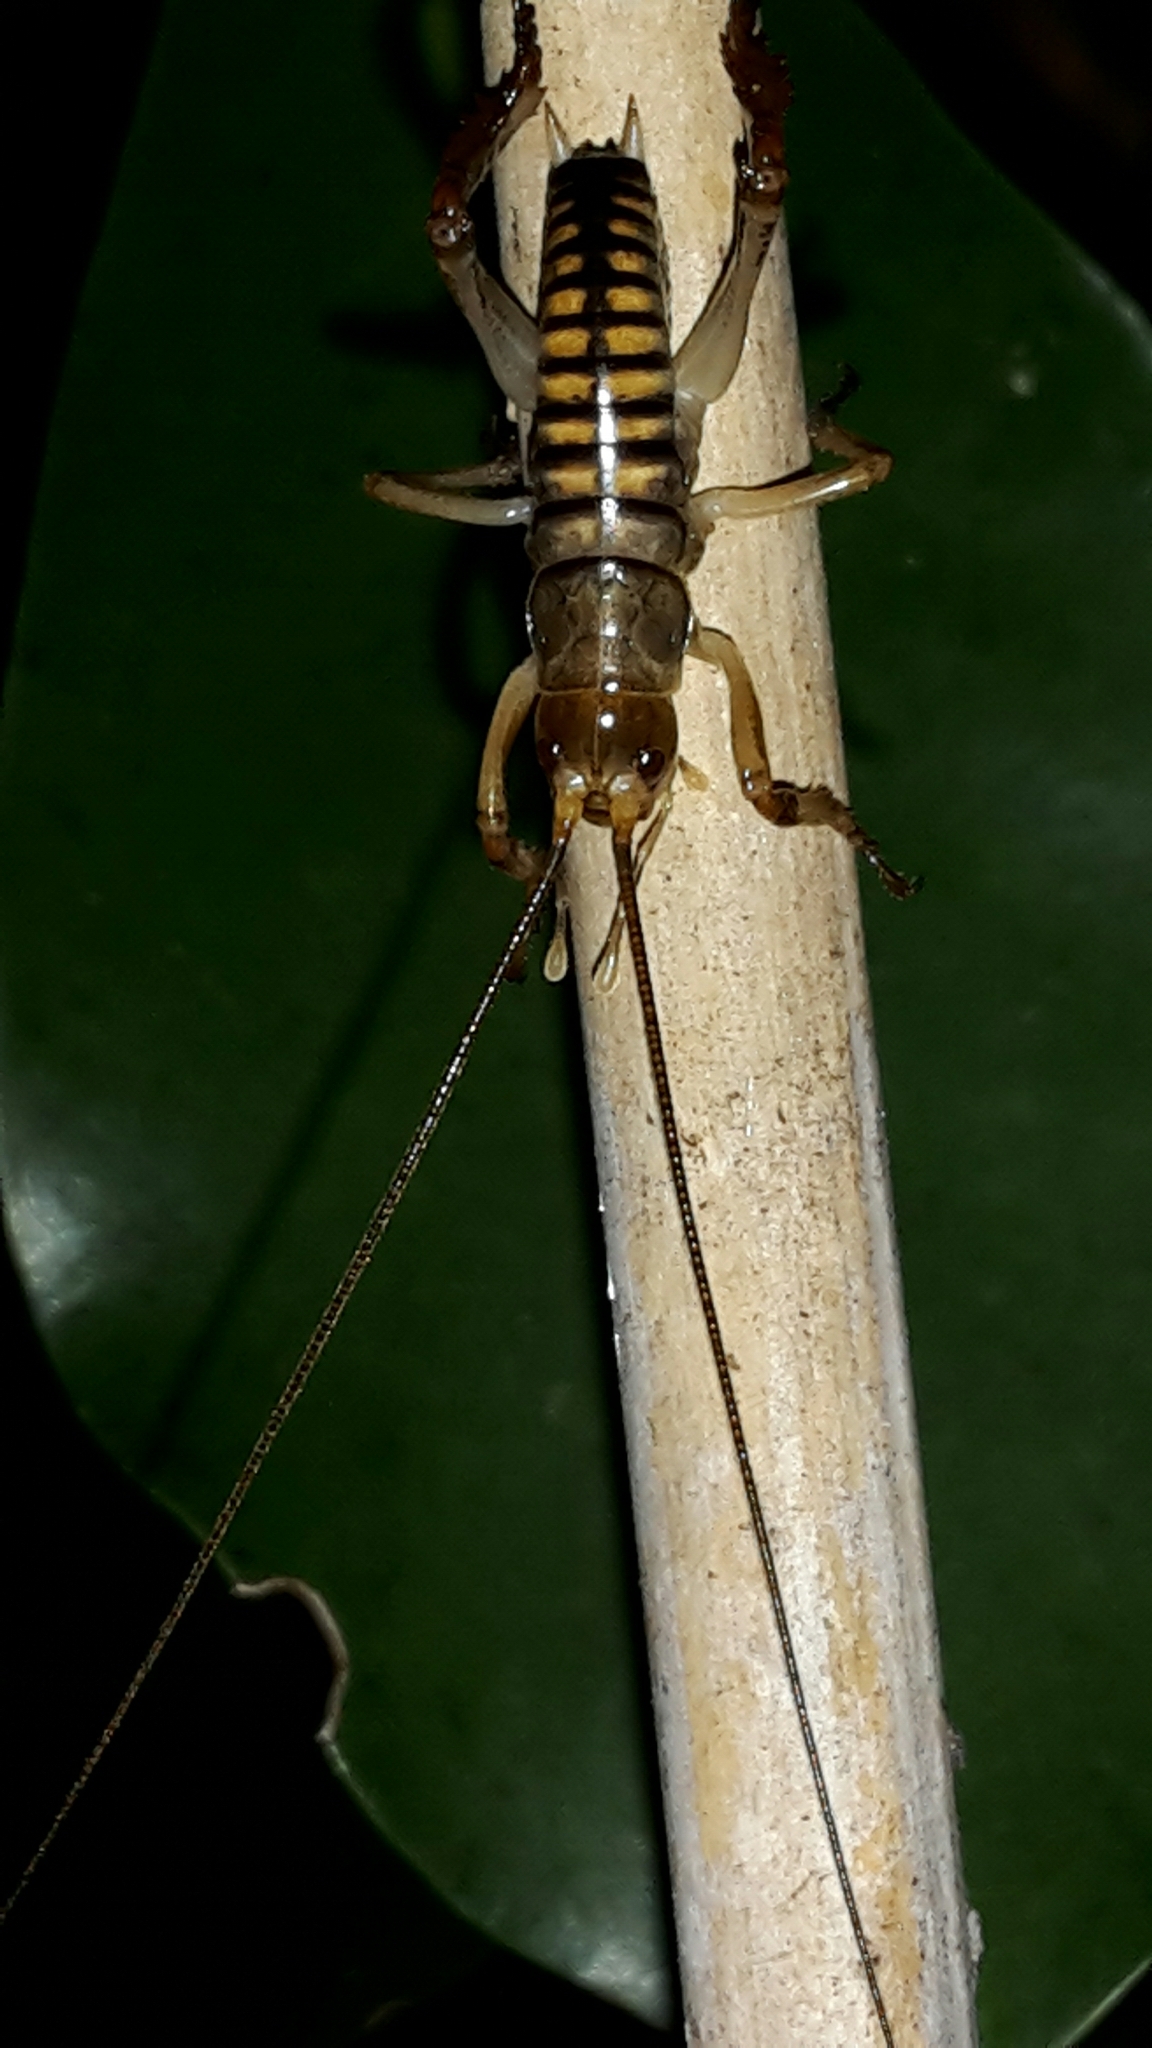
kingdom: Animalia
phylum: Arthropoda
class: Insecta
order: Orthoptera
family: Anostostomatidae
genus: Hemideina
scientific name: Hemideina crassidens
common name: Wellington tree weta
